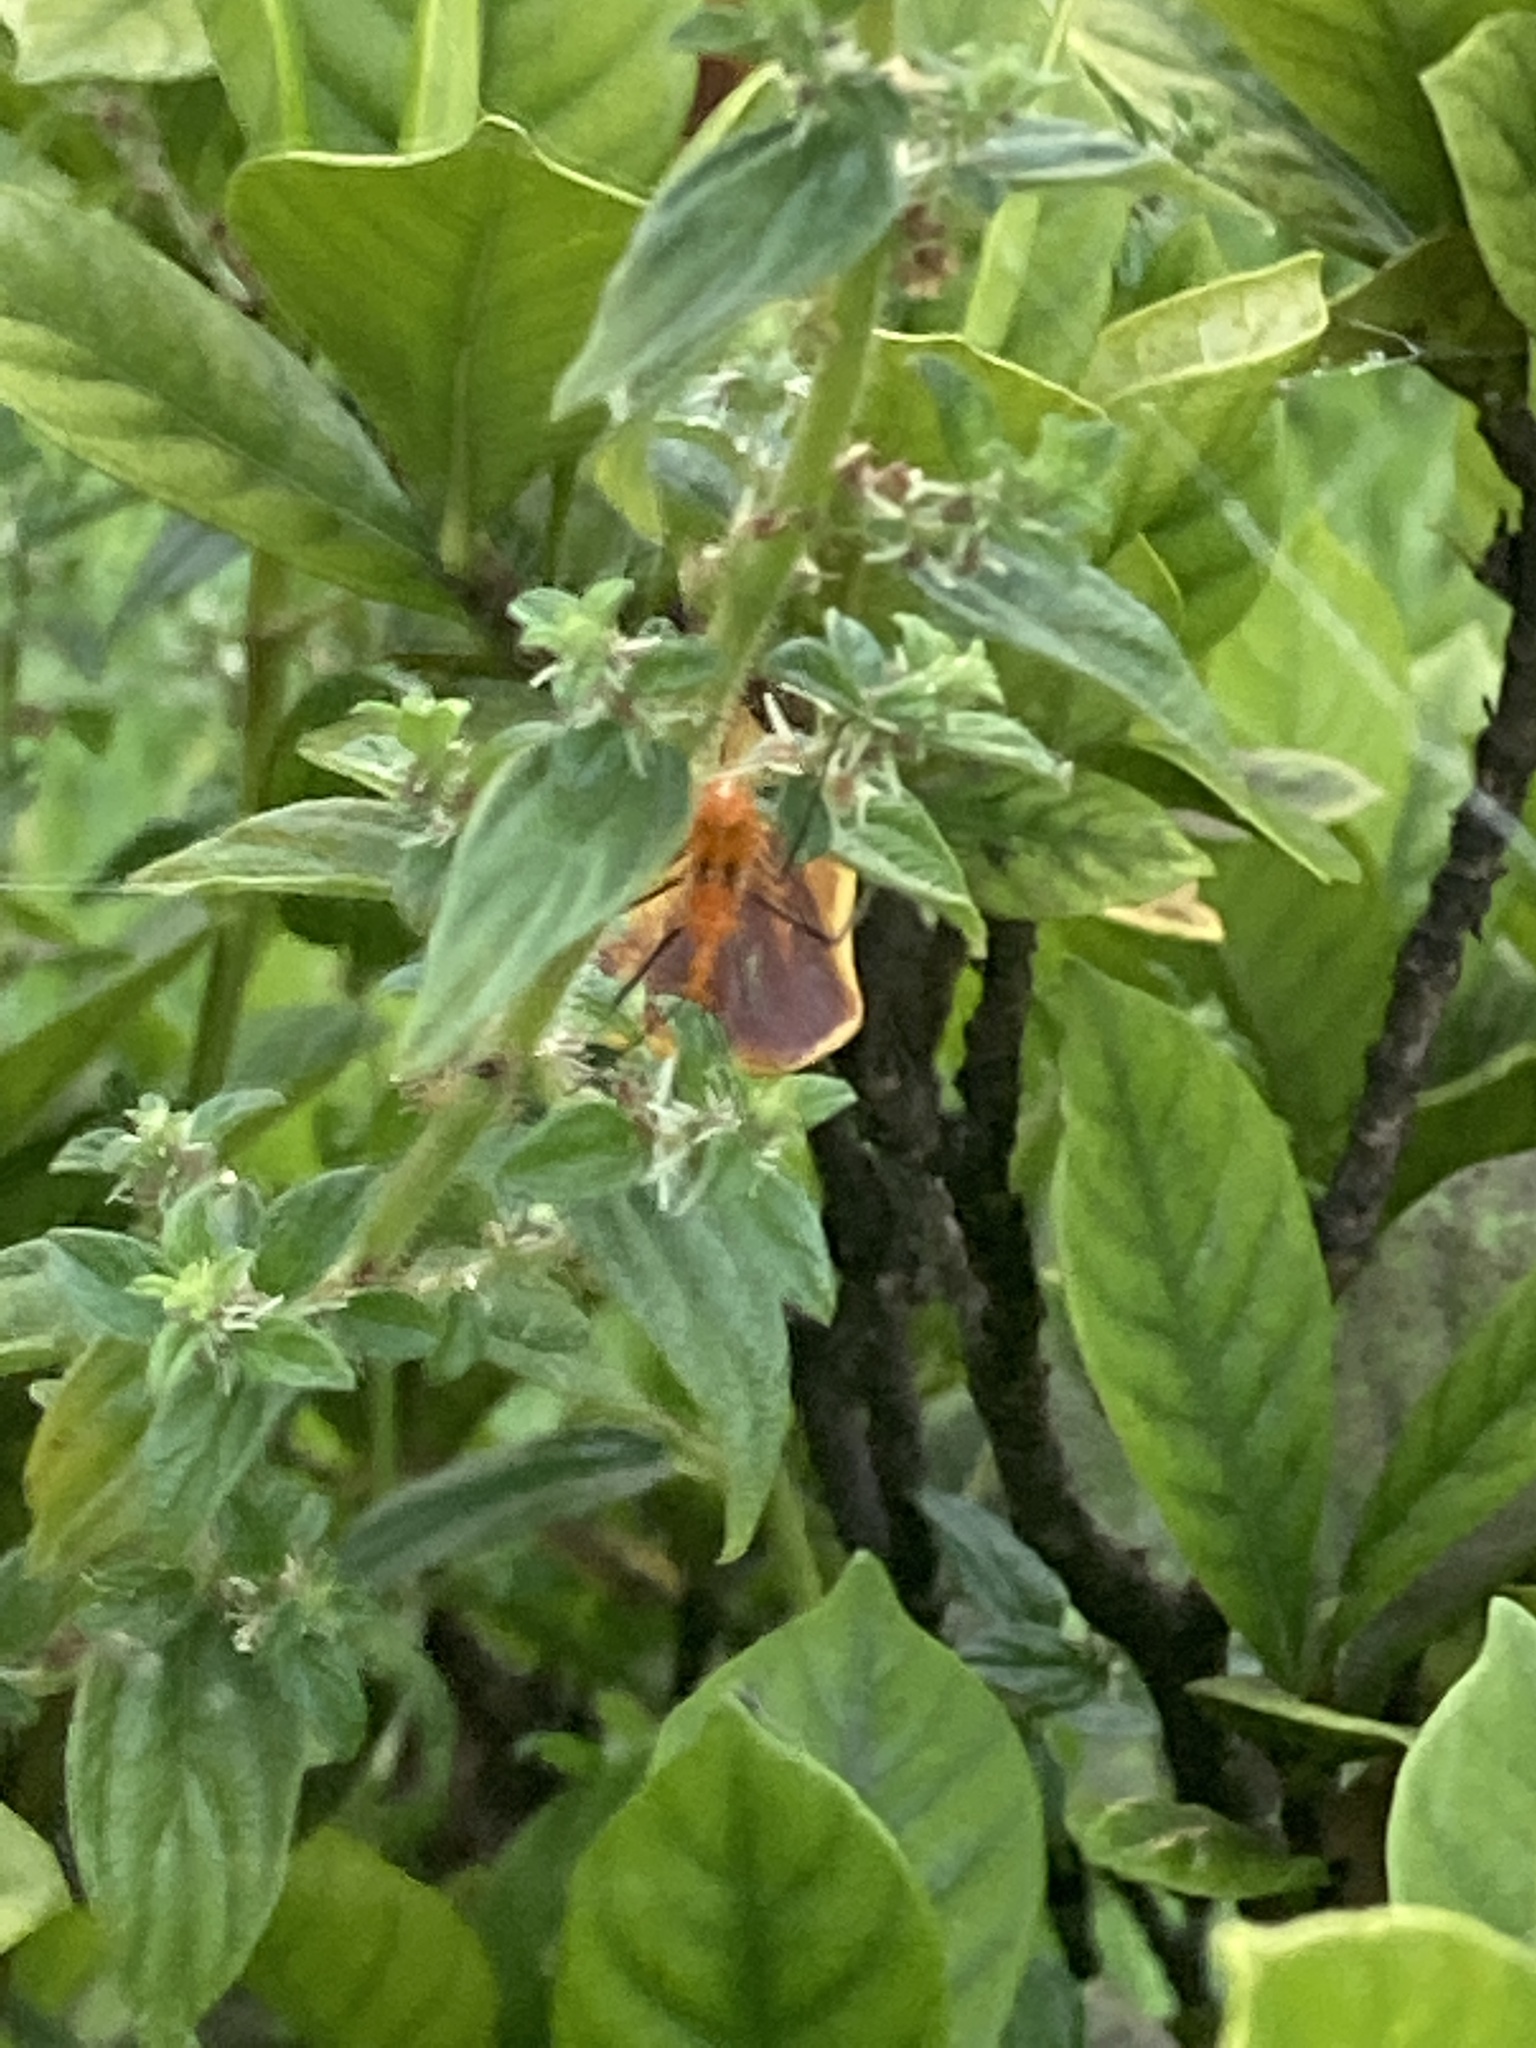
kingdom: Animalia
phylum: Arthropoda
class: Insecta
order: Hemiptera
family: Reduviidae
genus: Zelus
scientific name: Zelus longipes
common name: Milkweed assassin bug
